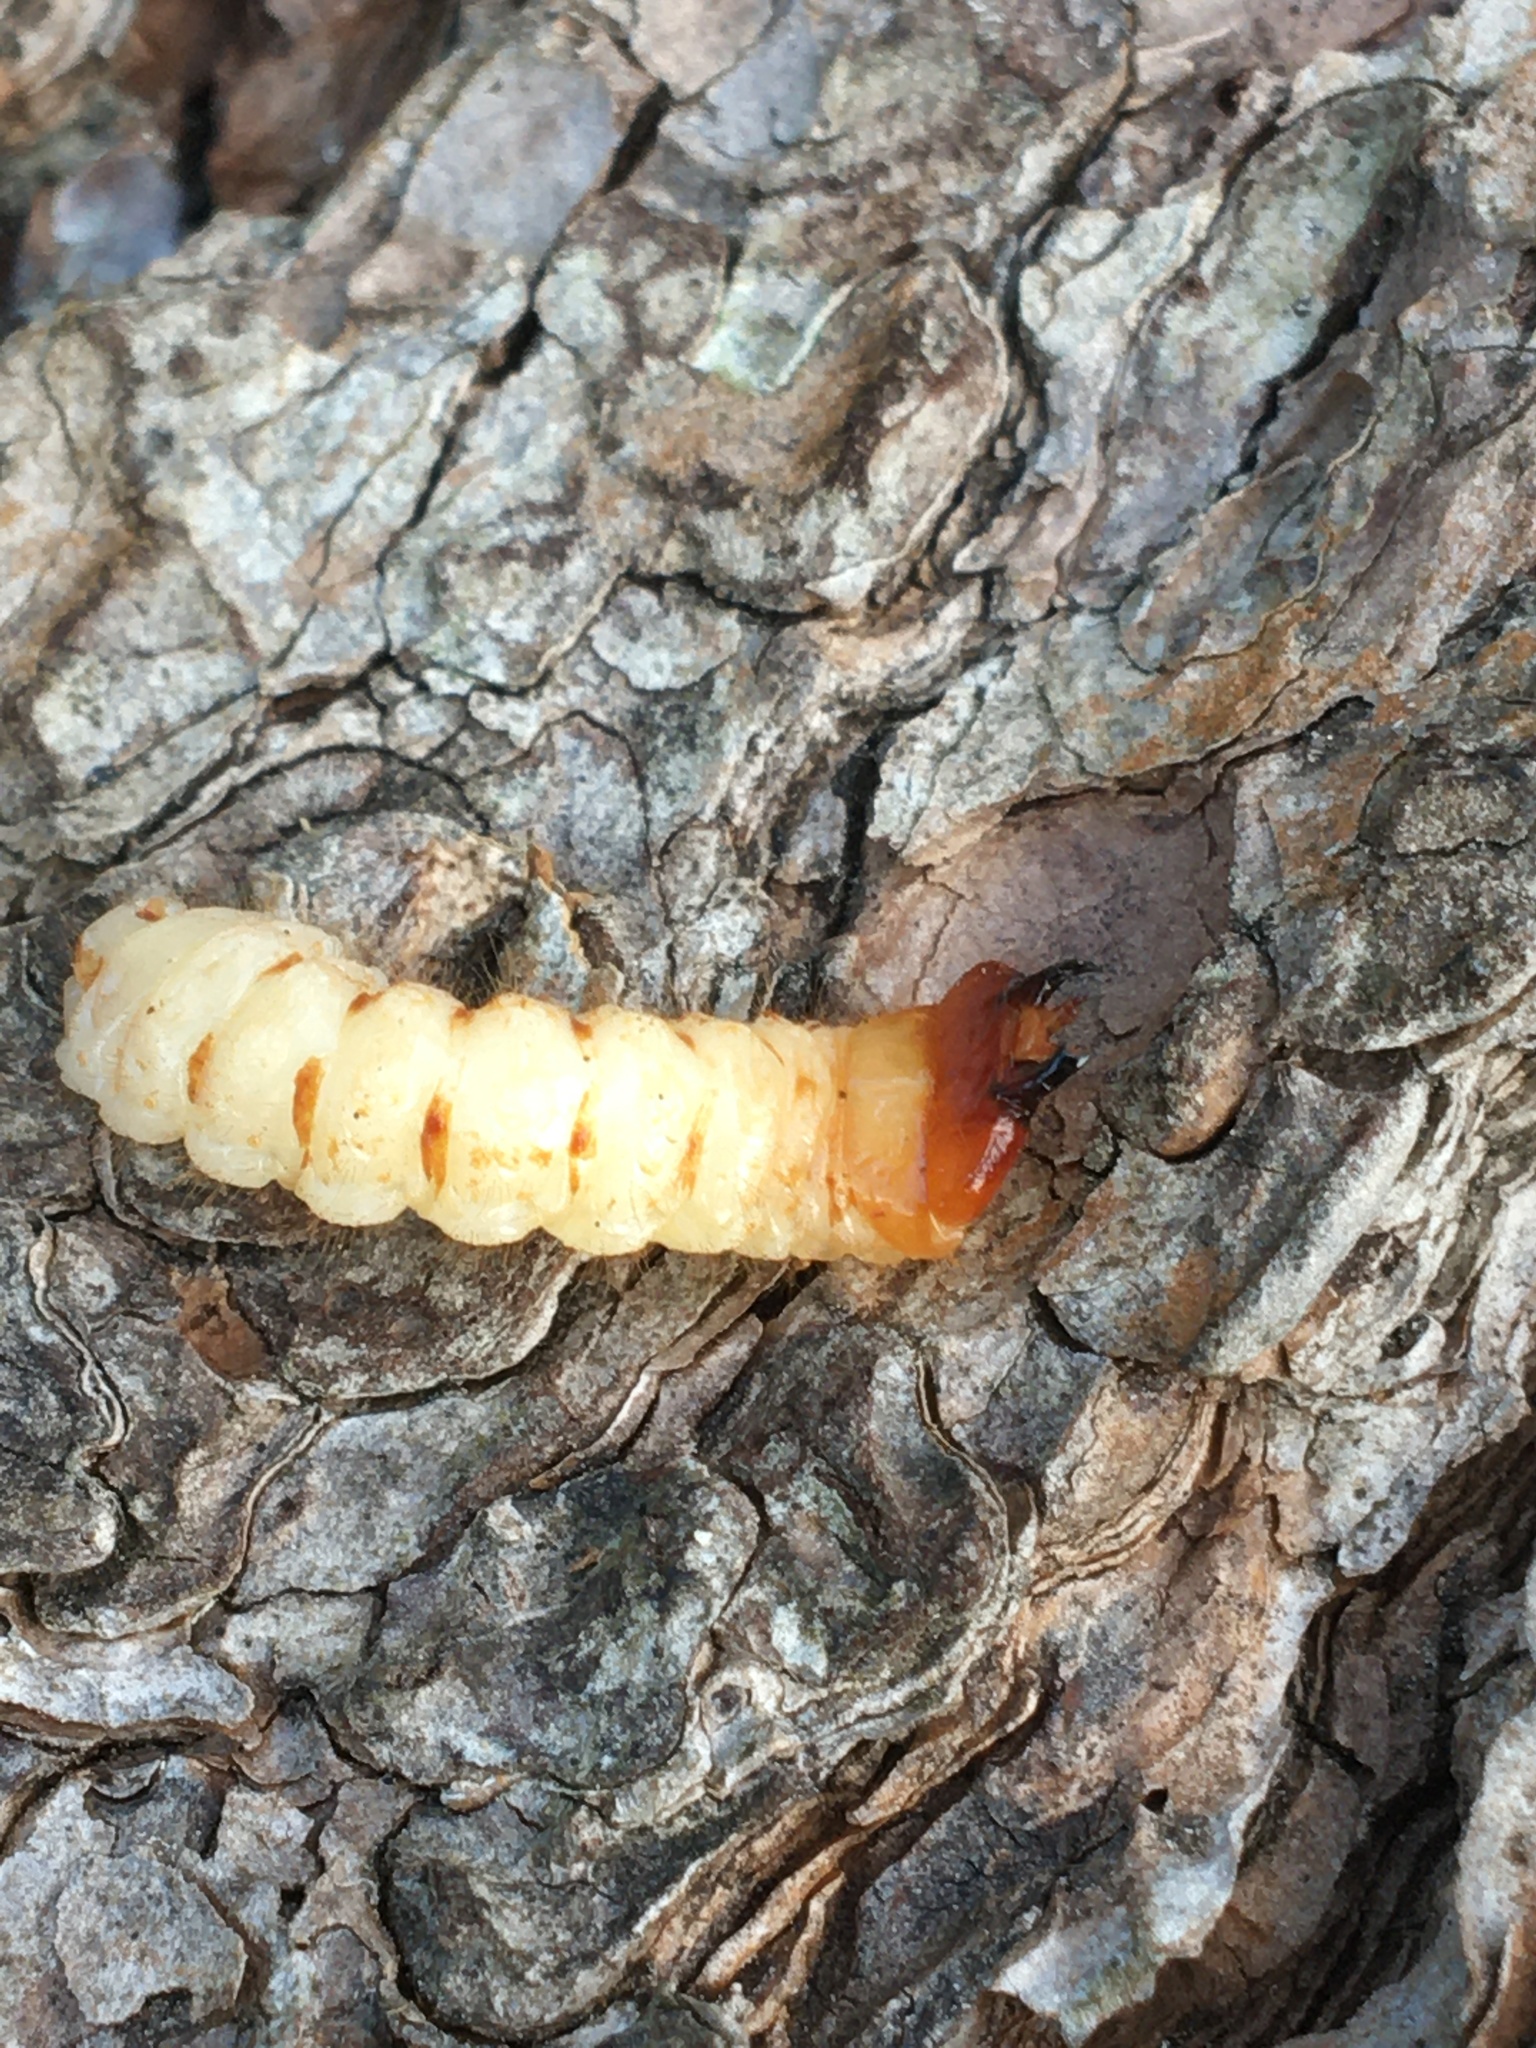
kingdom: Animalia
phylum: Arthropoda
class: Insecta
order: Coleoptera
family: Cerambycidae
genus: Rhagium
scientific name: Rhagium inquisitor
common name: Ribbed pine borer
